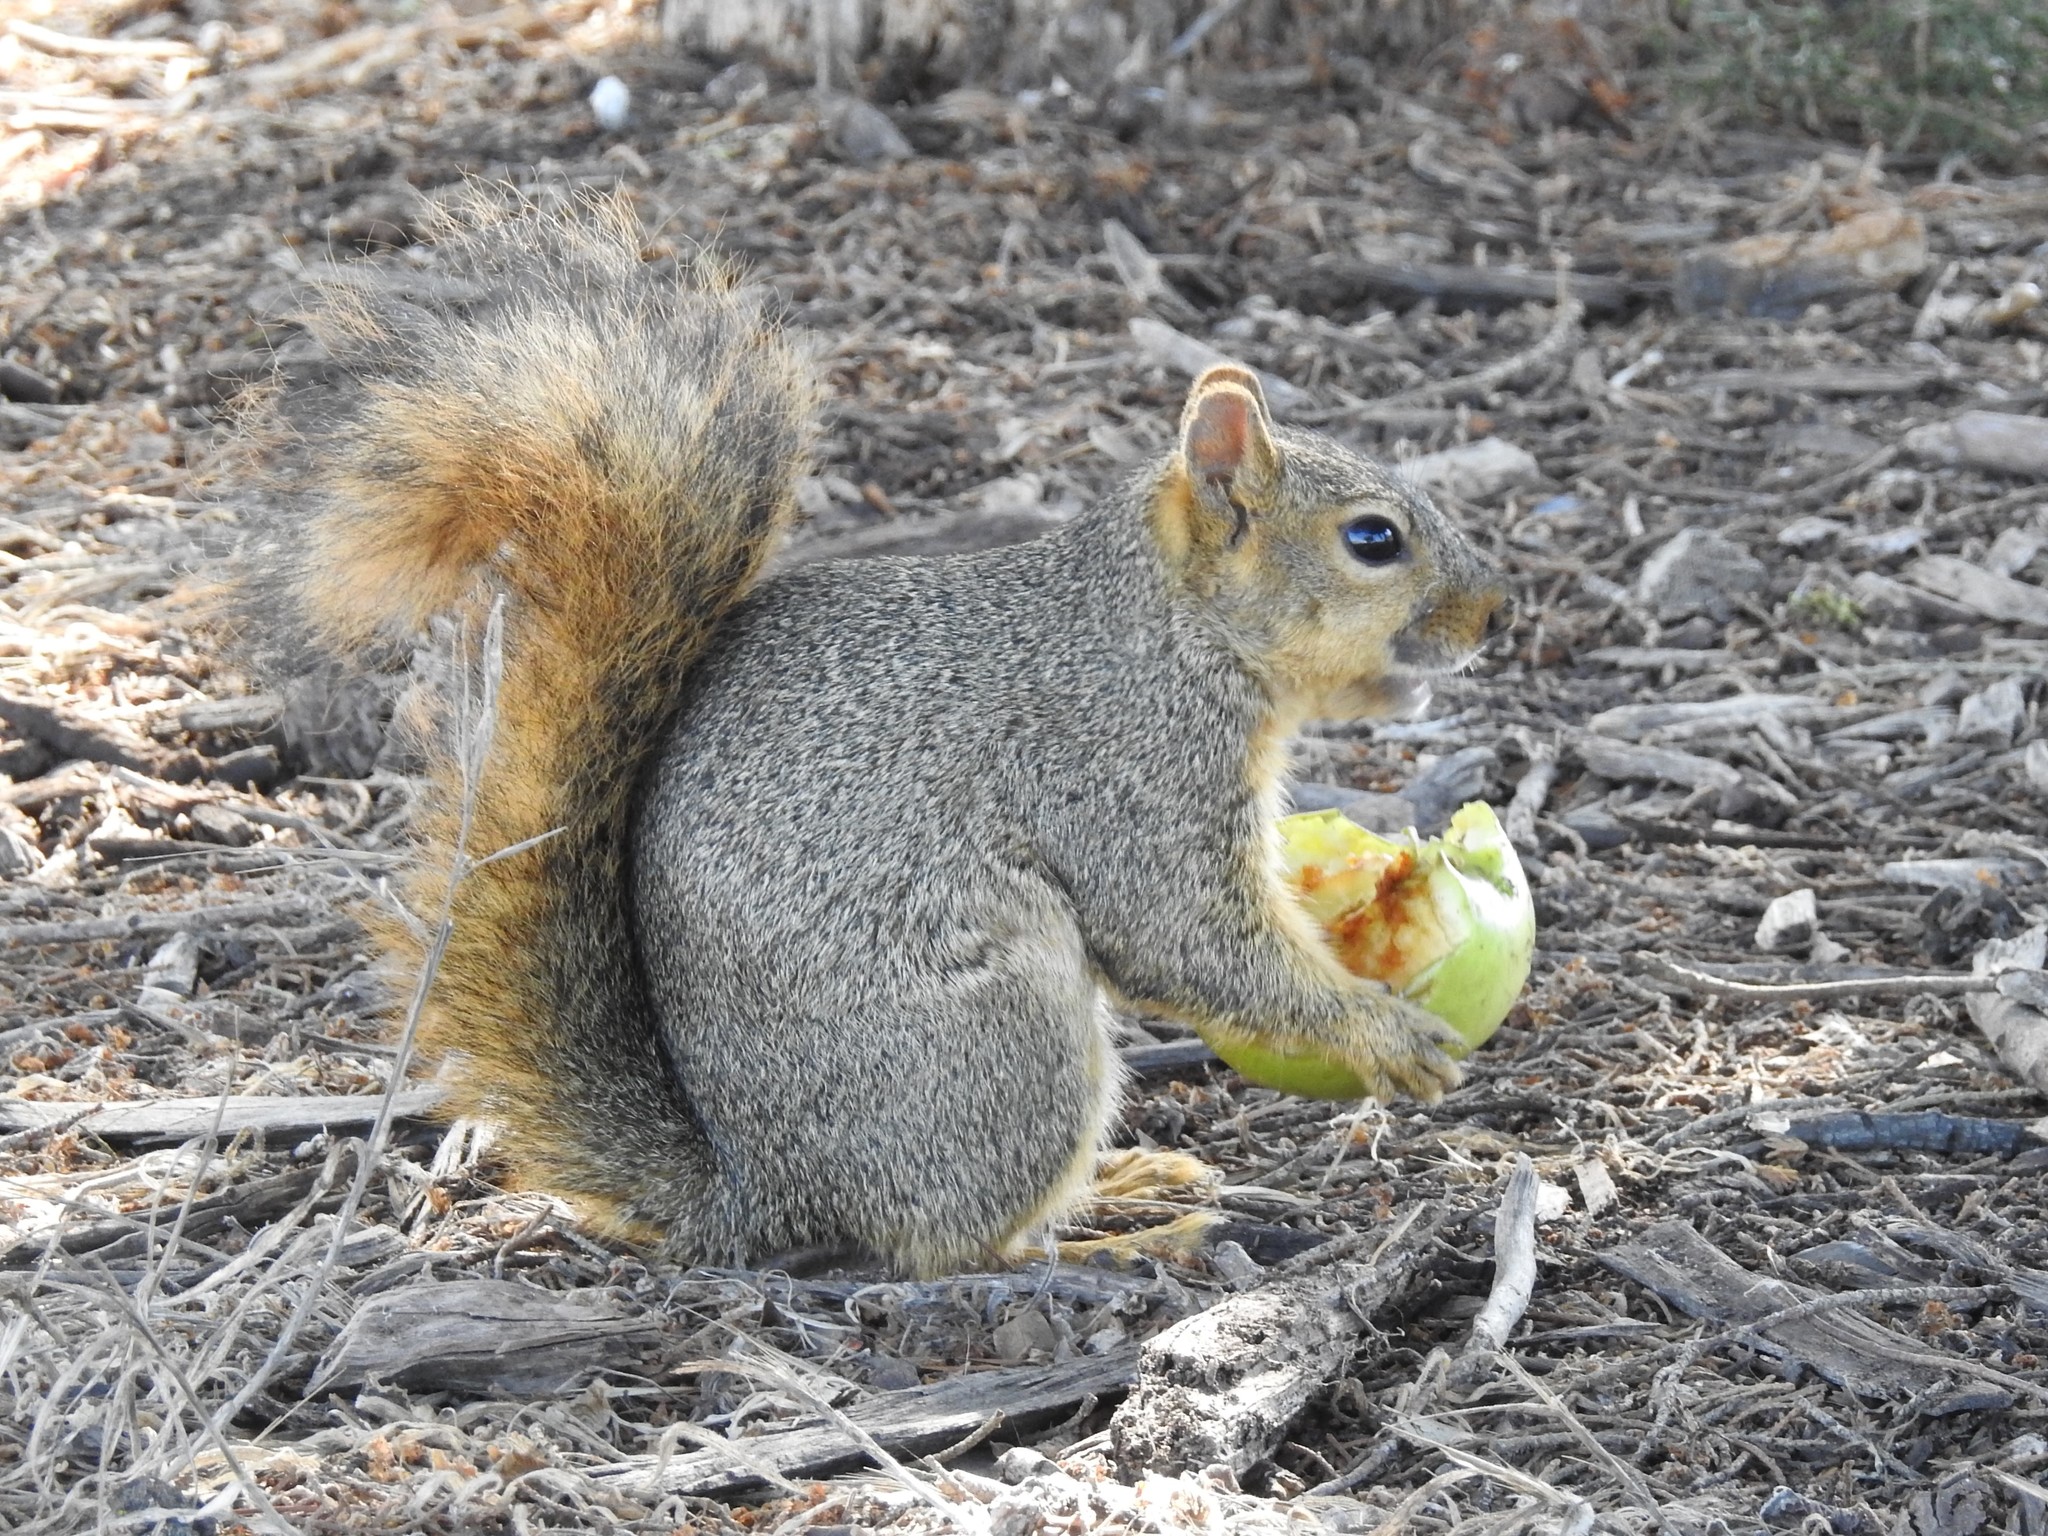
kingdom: Animalia
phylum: Chordata
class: Mammalia
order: Rodentia
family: Sciuridae
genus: Sciurus
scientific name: Sciurus niger
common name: Fox squirrel
